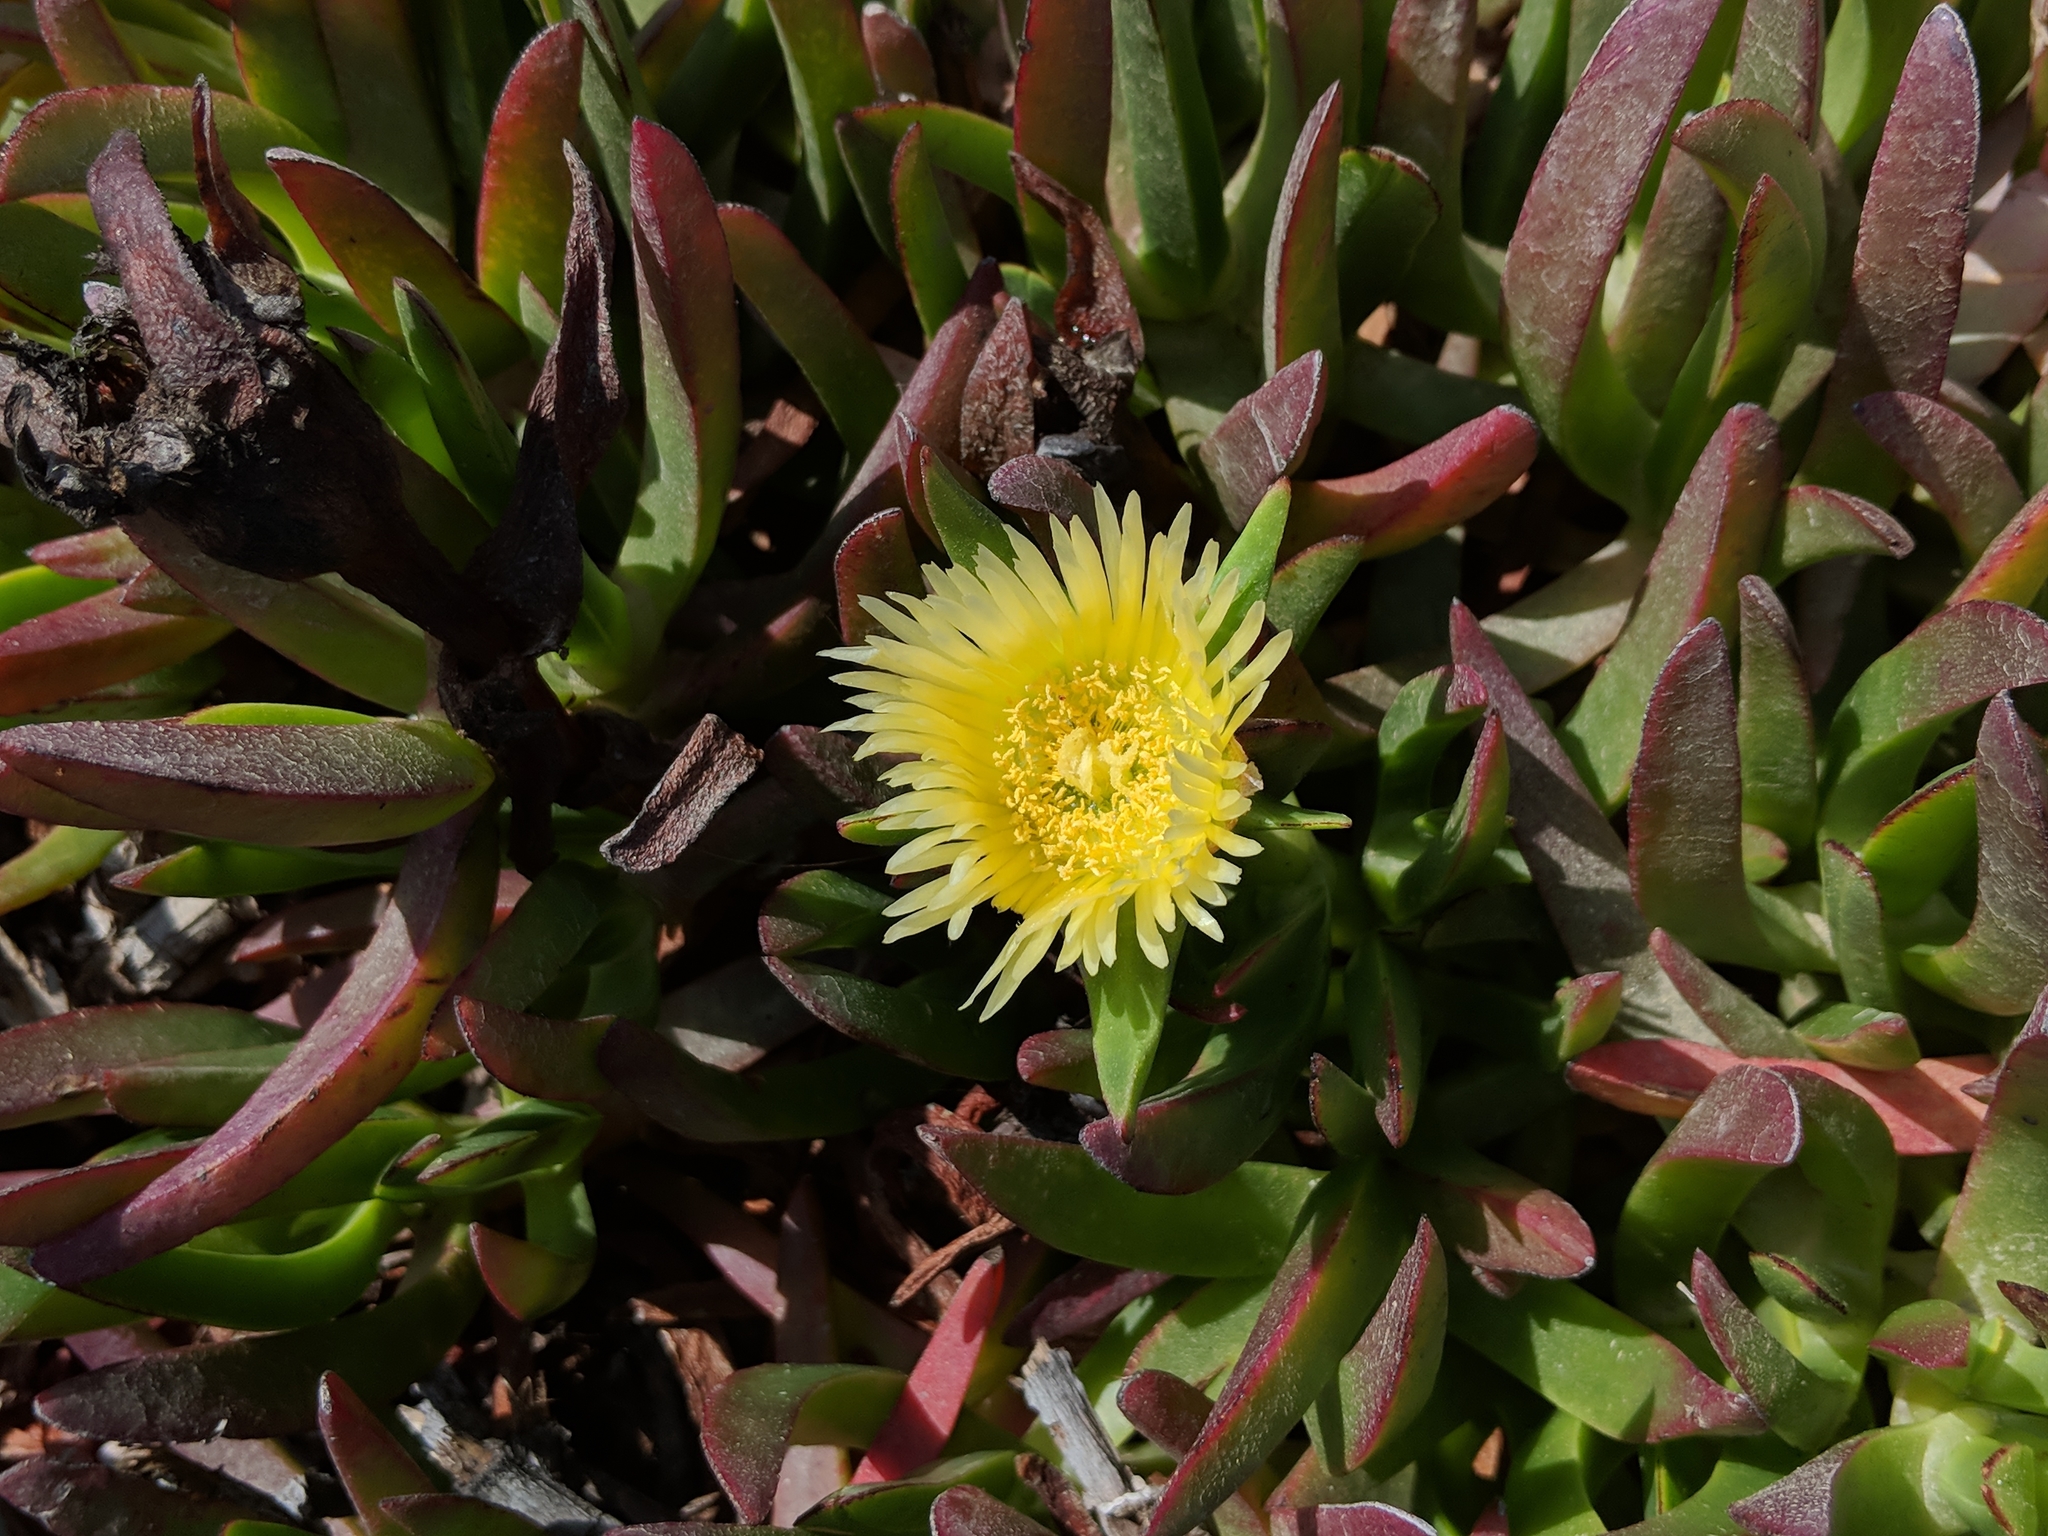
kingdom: Plantae
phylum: Tracheophyta
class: Magnoliopsida
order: Caryophyllales
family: Aizoaceae
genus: Carpobrotus
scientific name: Carpobrotus edulis
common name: Hottentot-fig
